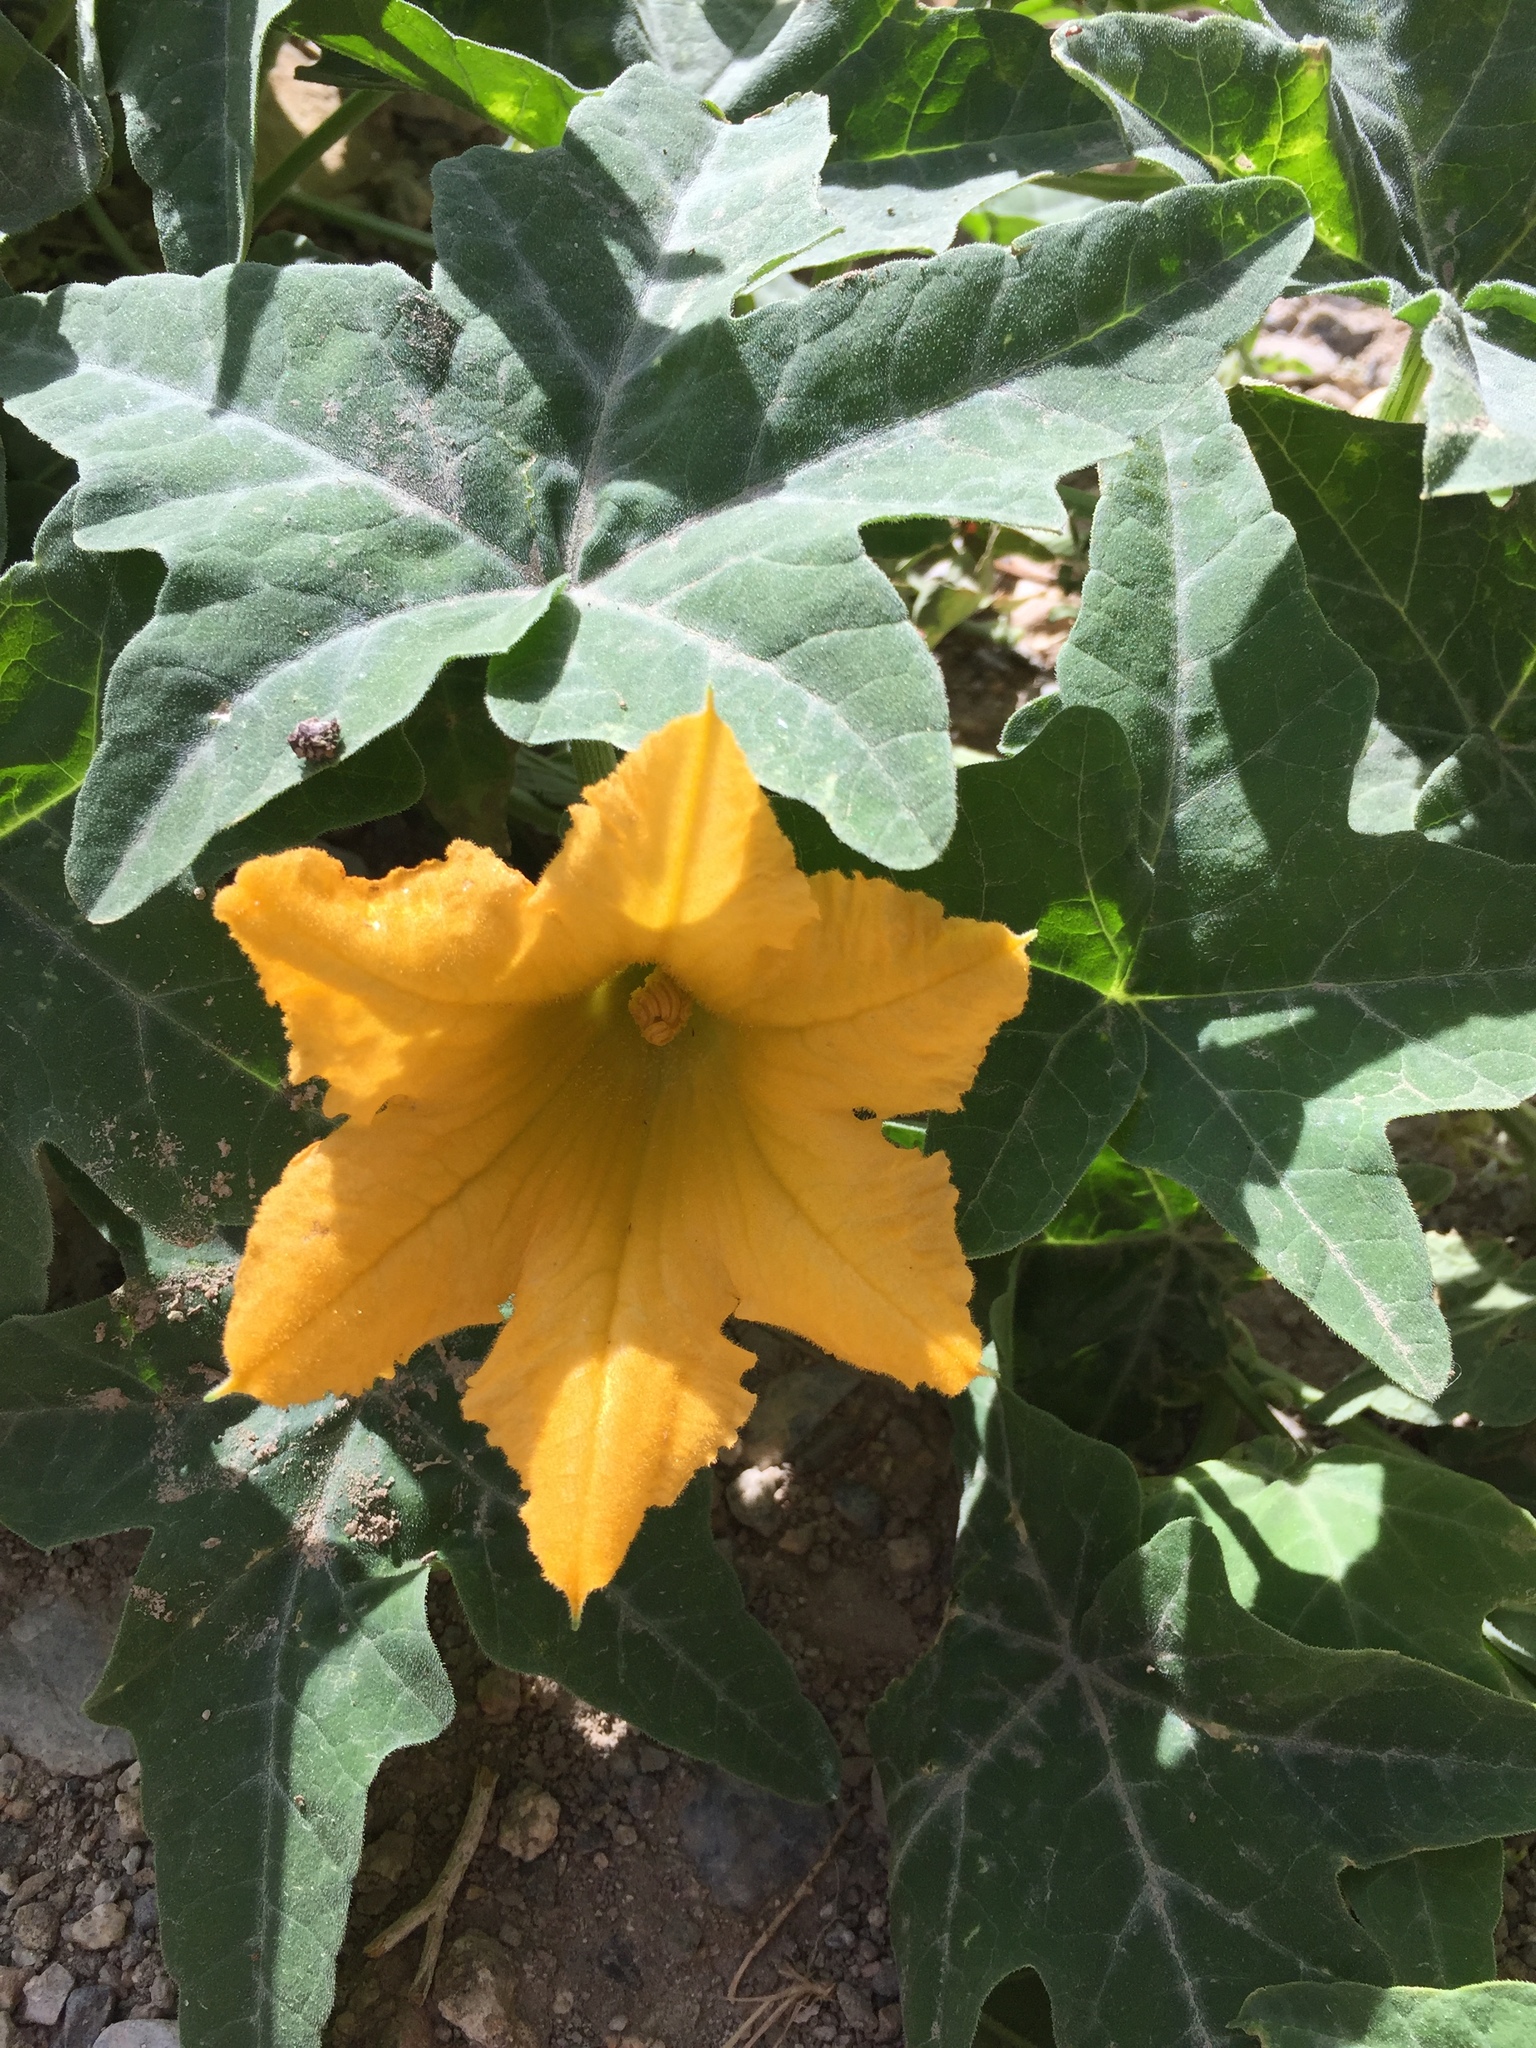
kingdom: Plantae
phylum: Tracheophyta
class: Magnoliopsida
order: Cucurbitales
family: Cucurbitaceae
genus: Cucurbita
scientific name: Cucurbita palmata
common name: Coyote-melon
